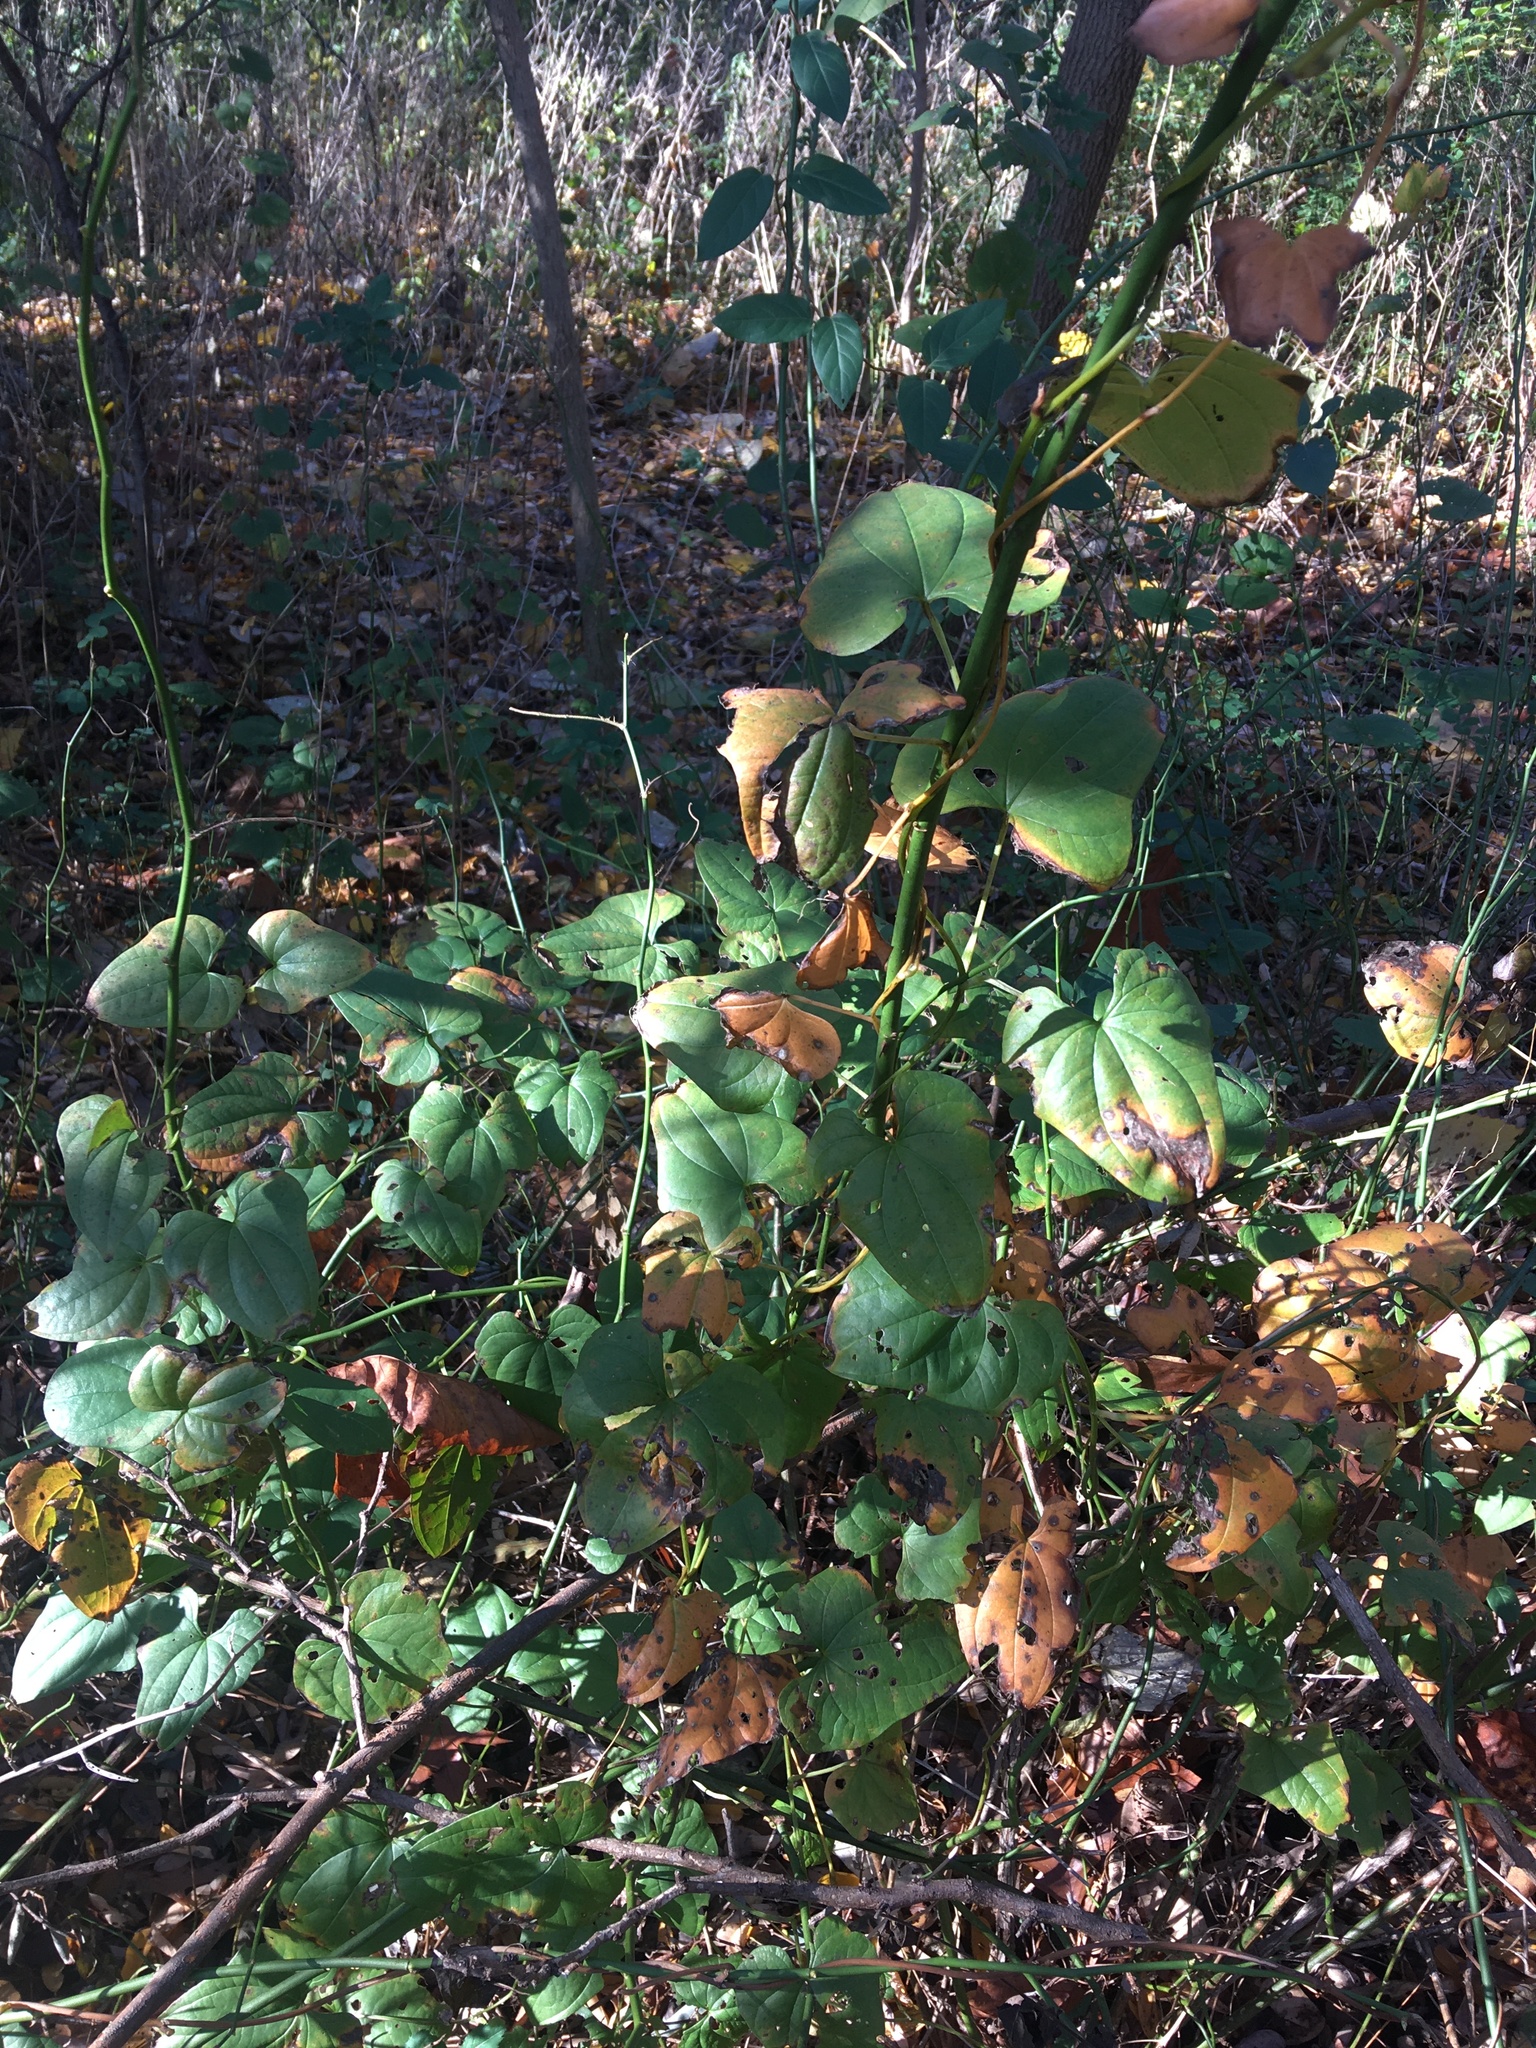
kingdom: Plantae
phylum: Tracheophyta
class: Liliopsida
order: Dioscoreales
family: Dioscoreaceae
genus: Dioscorea
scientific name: Dioscorea polystachya
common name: Chinese yam
